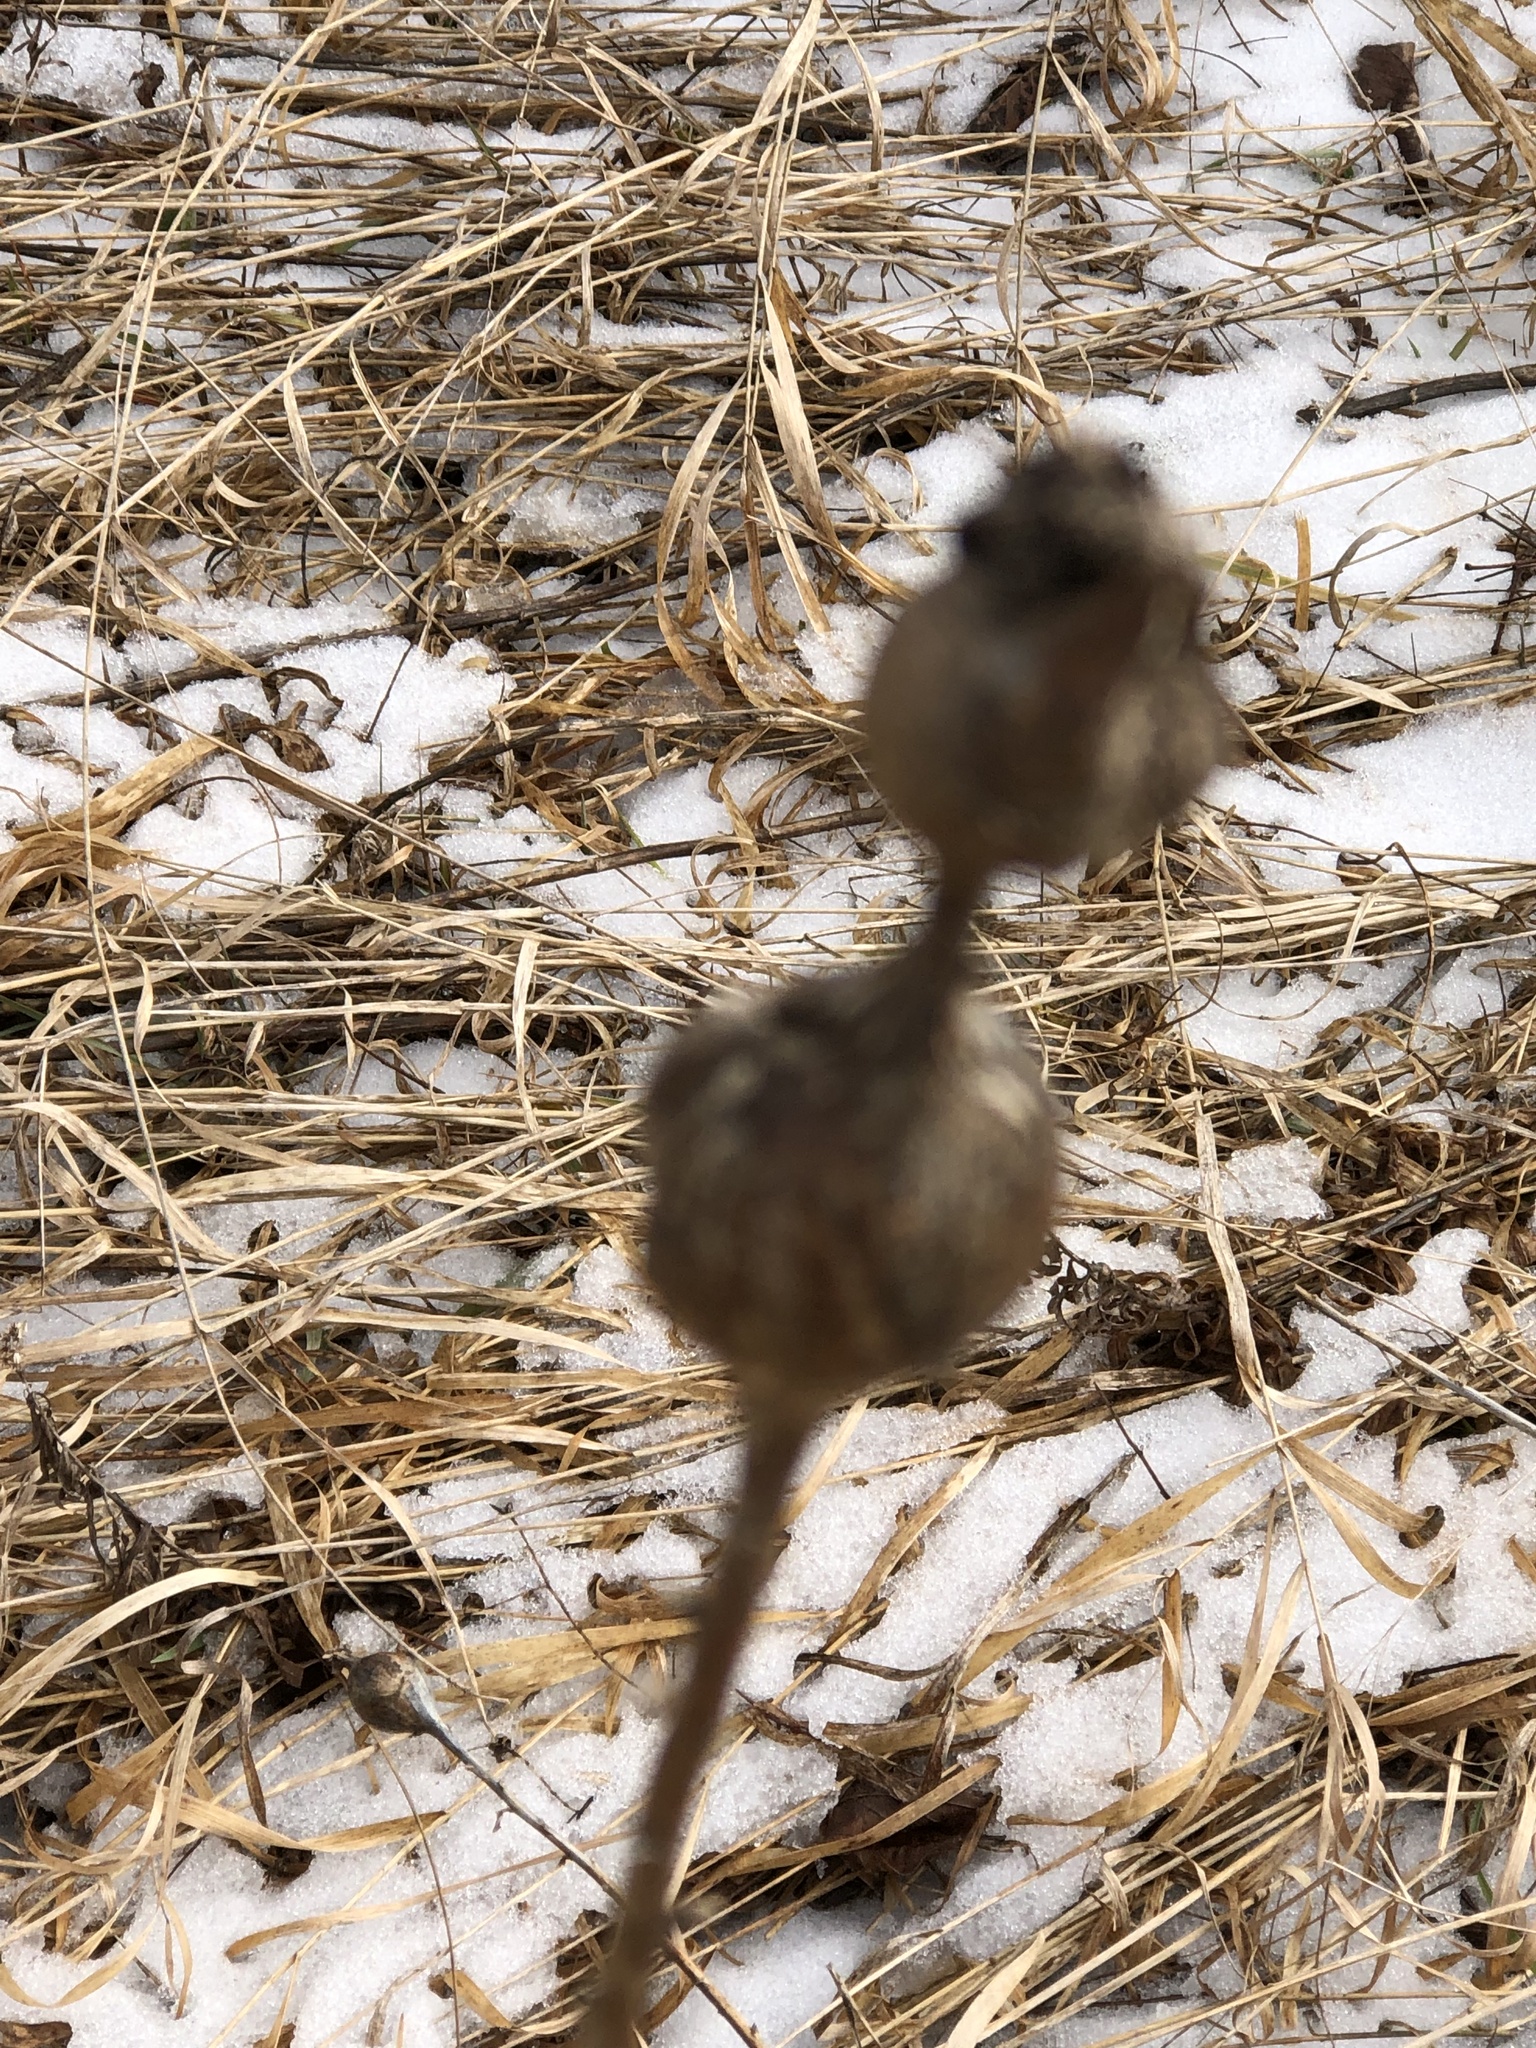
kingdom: Animalia
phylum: Arthropoda
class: Insecta
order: Diptera
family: Tephritidae
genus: Eurosta
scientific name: Eurosta solidaginis
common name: Goldenrod gall fly
